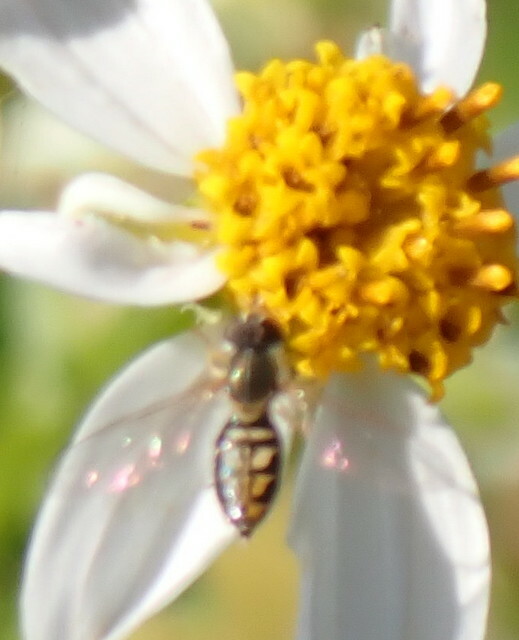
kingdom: Animalia
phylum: Arthropoda
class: Insecta
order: Diptera
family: Syrphidae
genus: Toxomerus
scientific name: Toxomerus marginatus
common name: Syrphid fly
